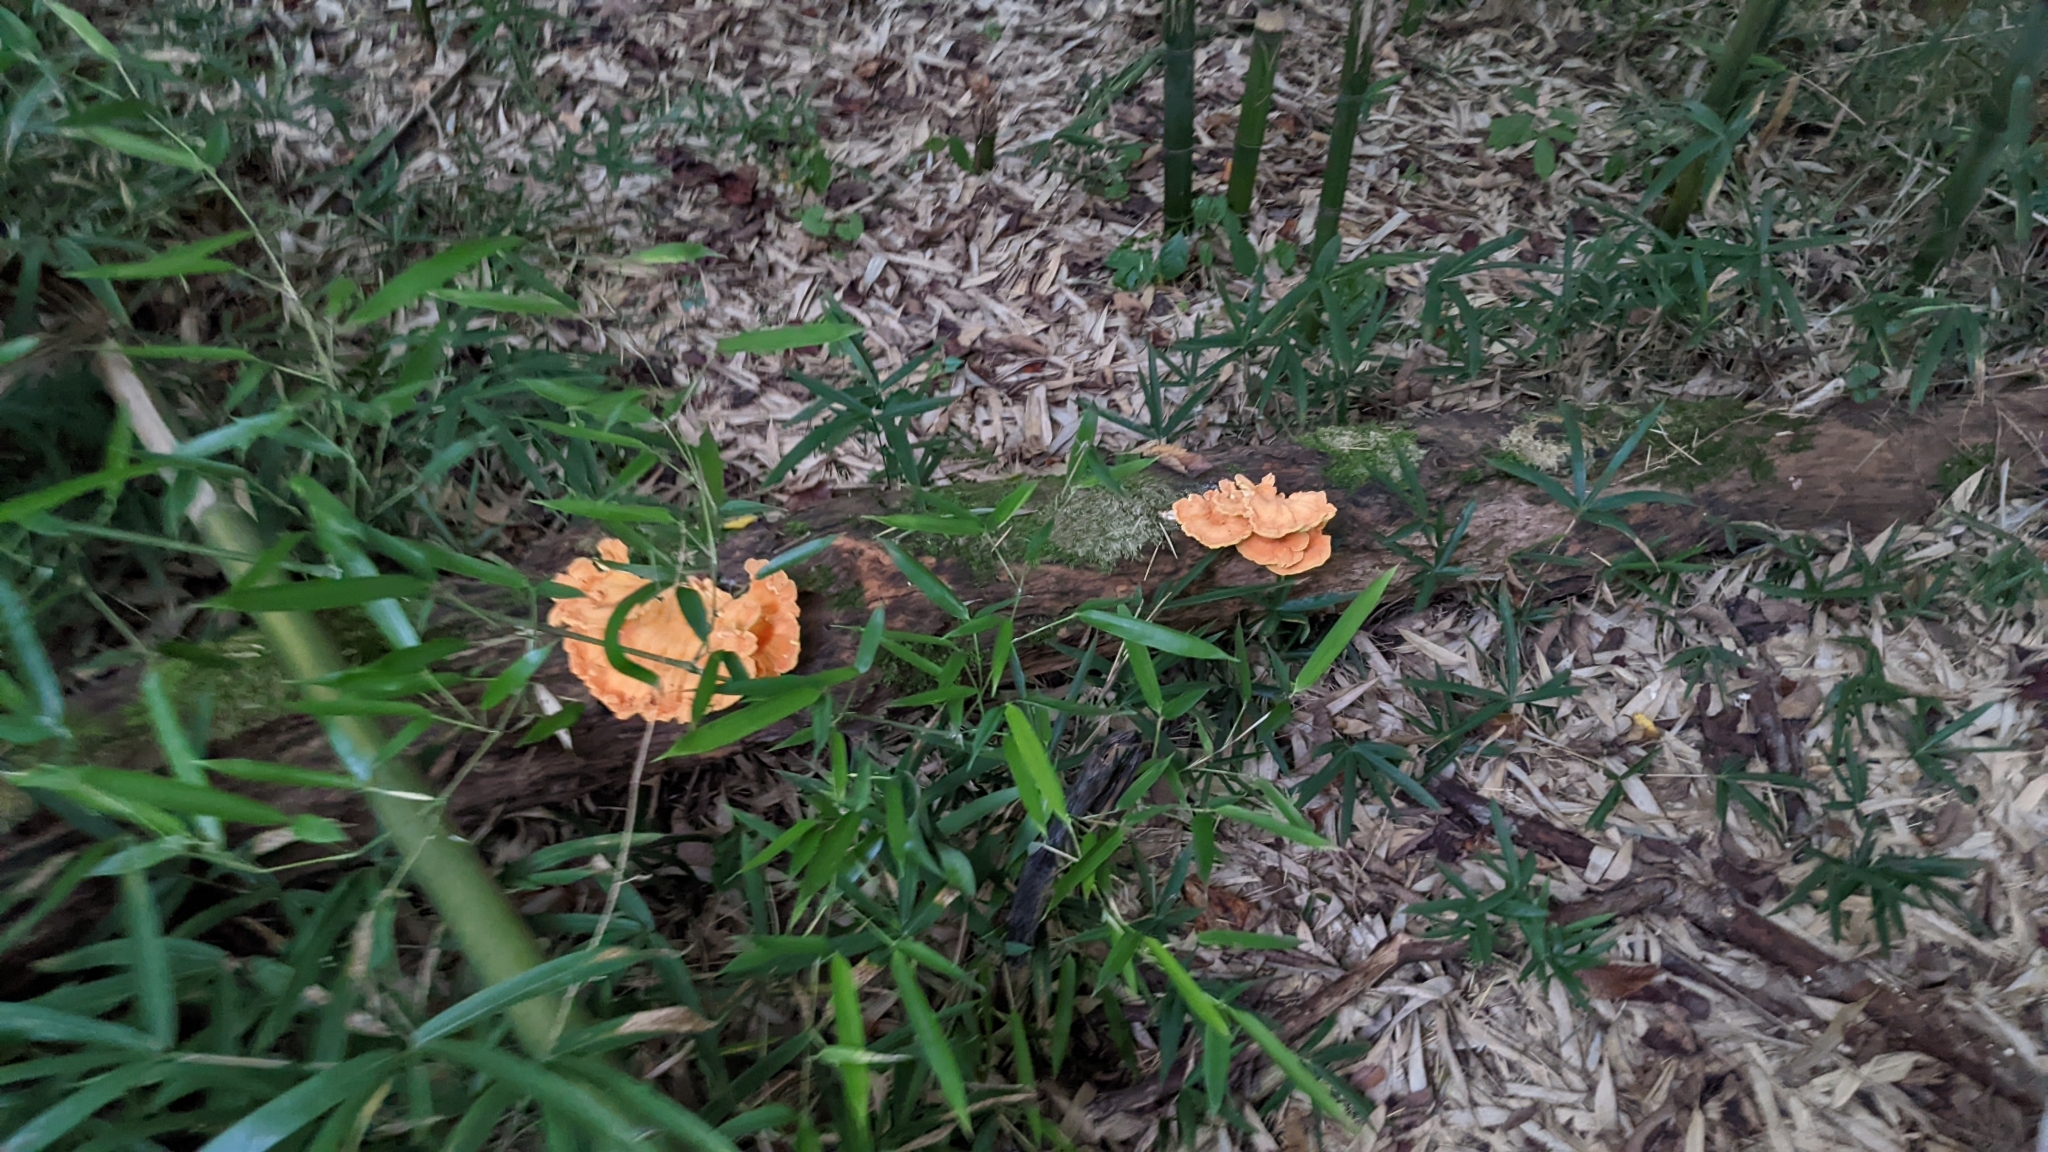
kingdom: Fungi
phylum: Basidiomycota
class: Agaricomycetes
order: Polyporales
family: Laetiporaceae
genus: Laetiporus
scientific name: Laetiporus sulphureus
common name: Chicken of the woods
